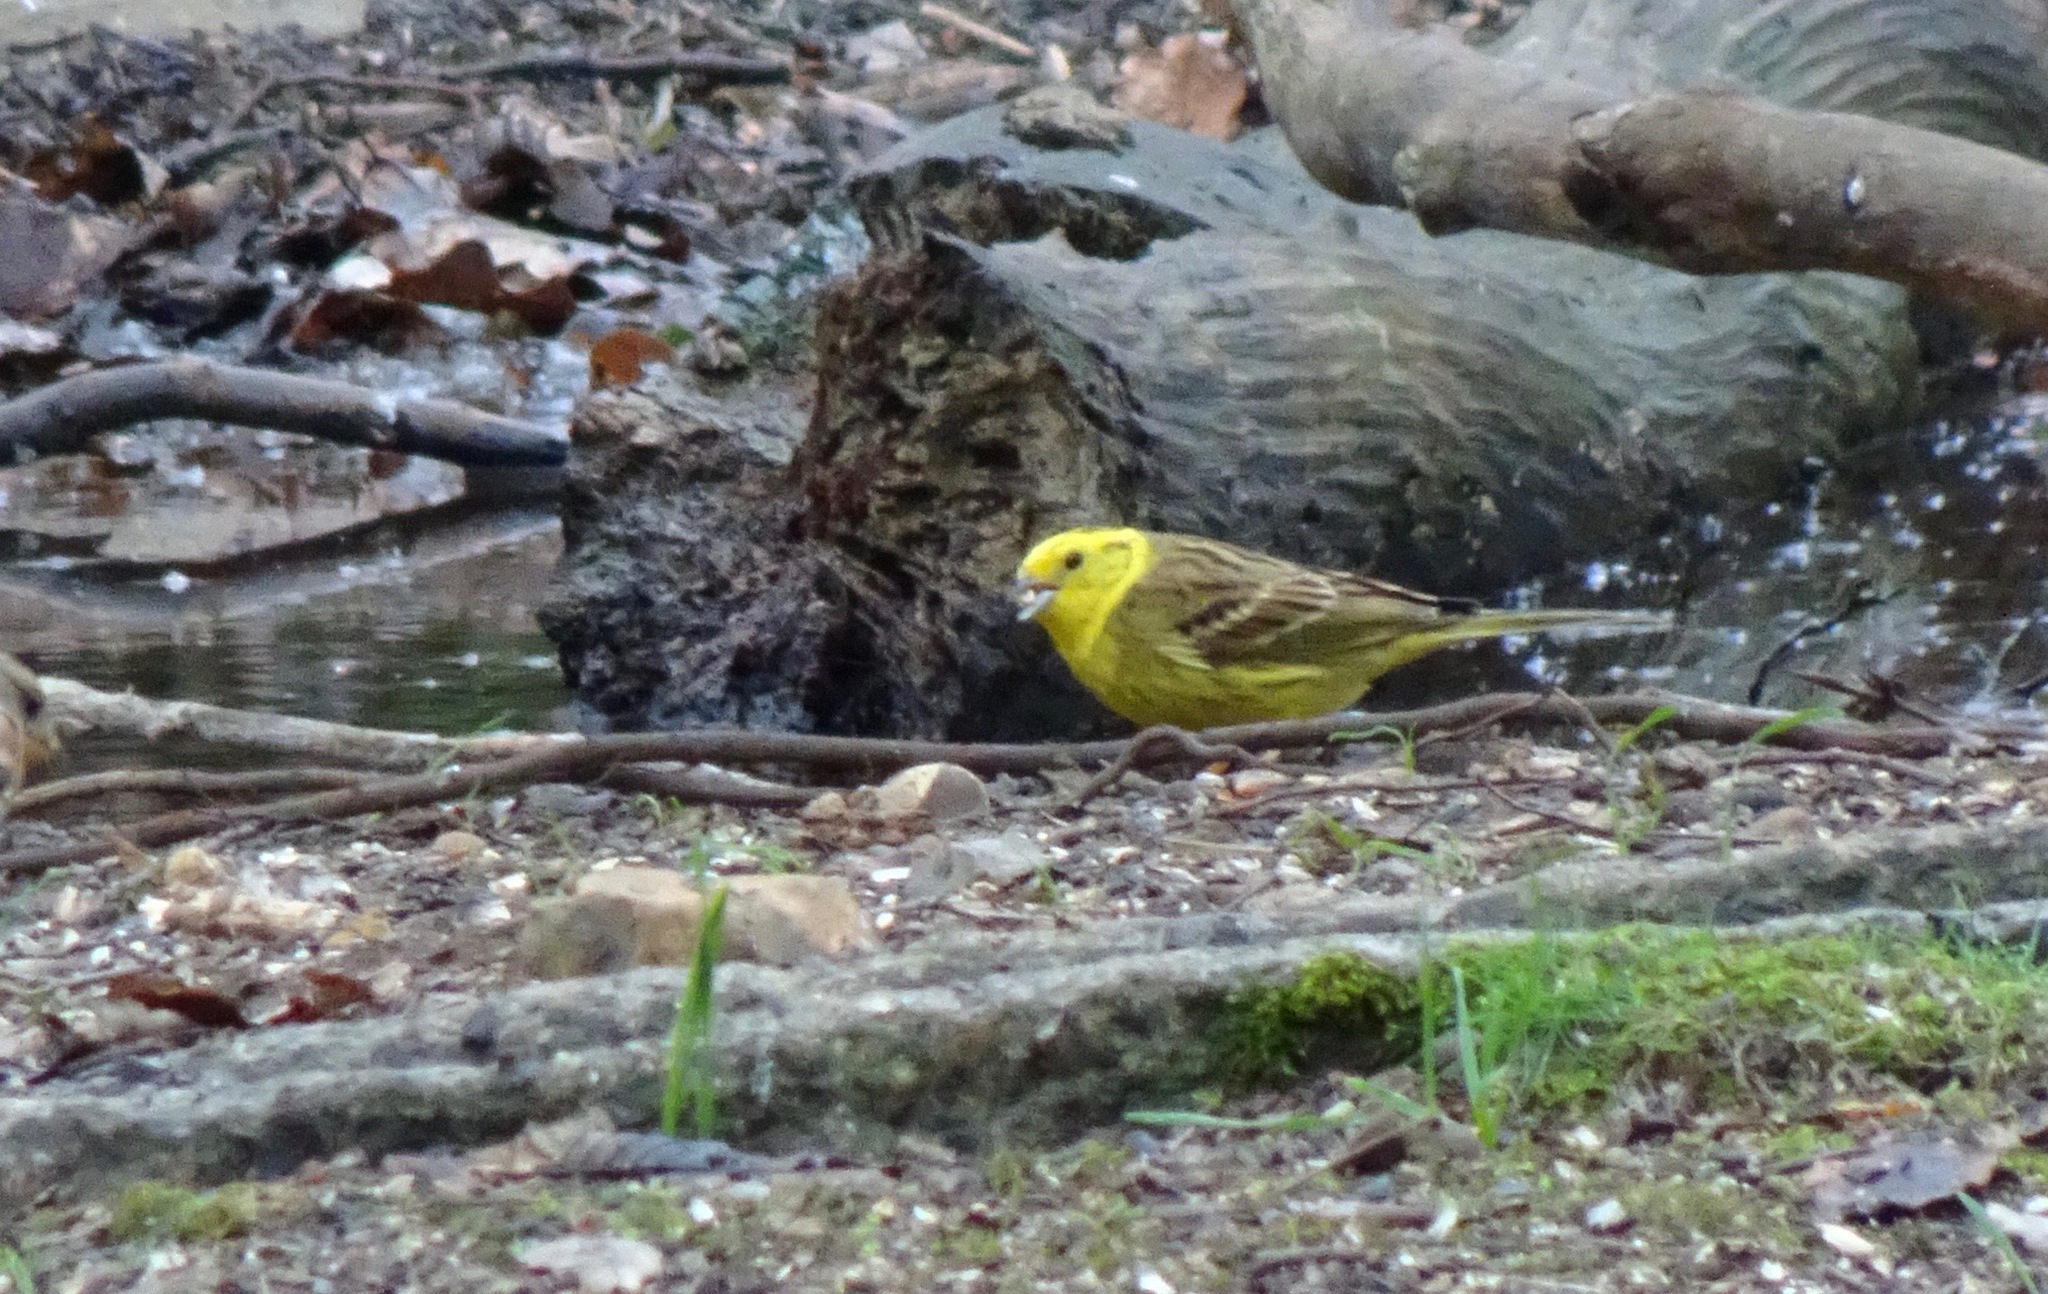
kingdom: Animalia
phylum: Chordata
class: Aves
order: Passeriformes
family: Emberizidae
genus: Emberiza
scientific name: Emberiza citrinella
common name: Yellowhammer
